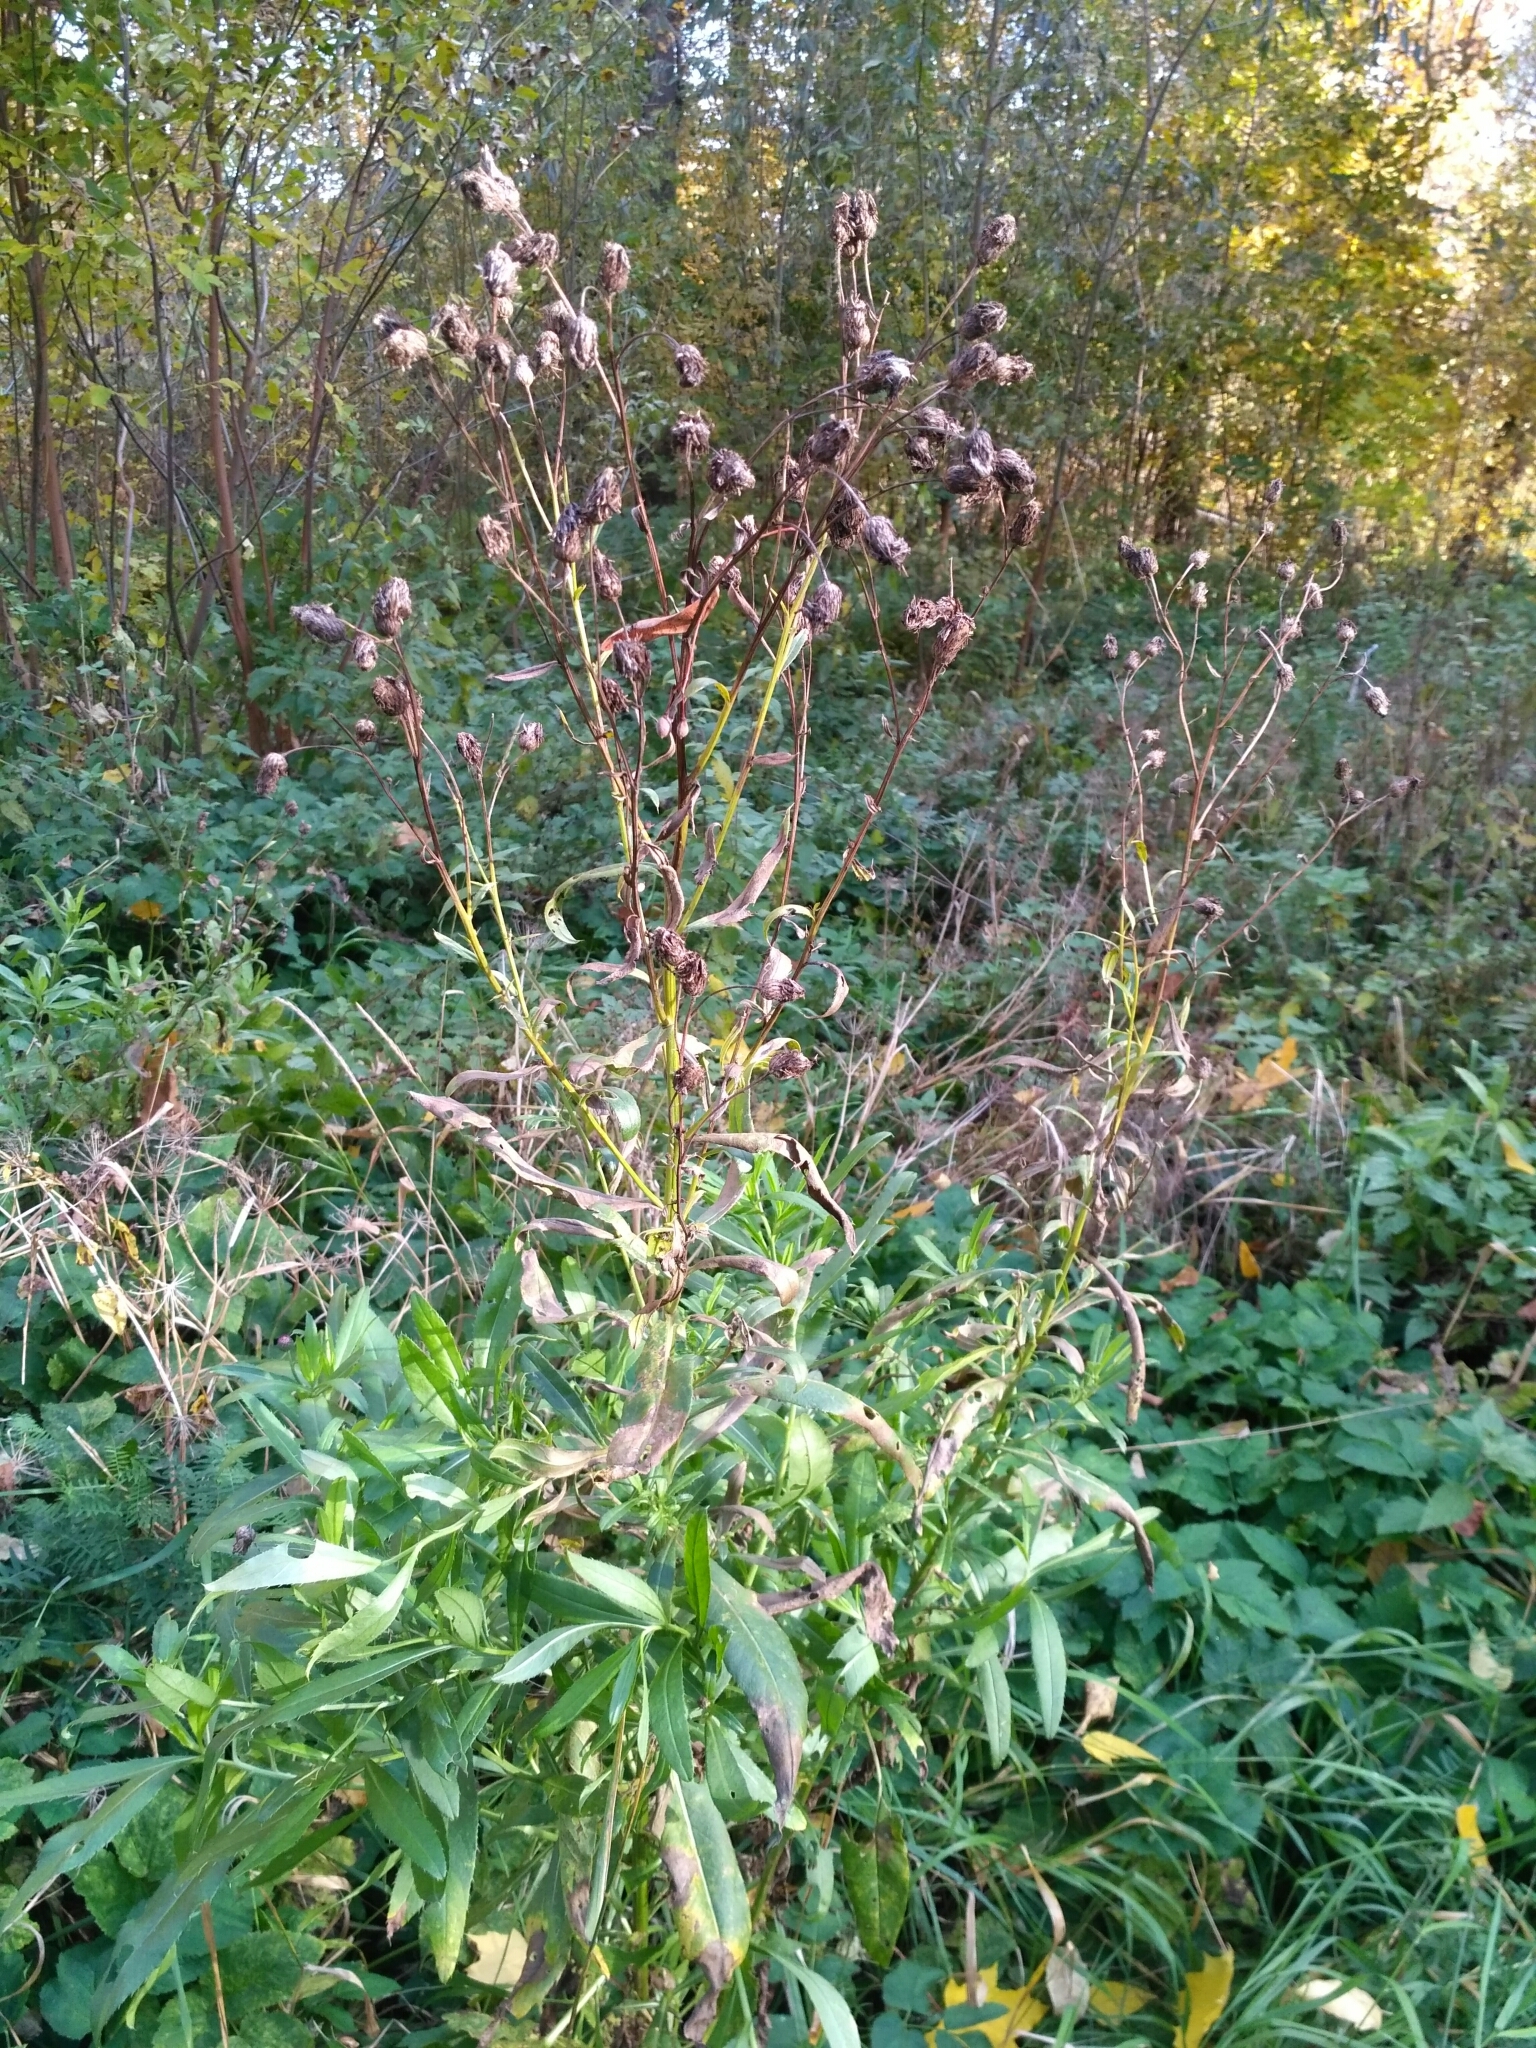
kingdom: Plantae
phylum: Tracheophyta
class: Magnoliopsida
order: Asterales
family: Asteraceae
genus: Cirsium
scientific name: Cirsium arvense
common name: Creeping thistle
